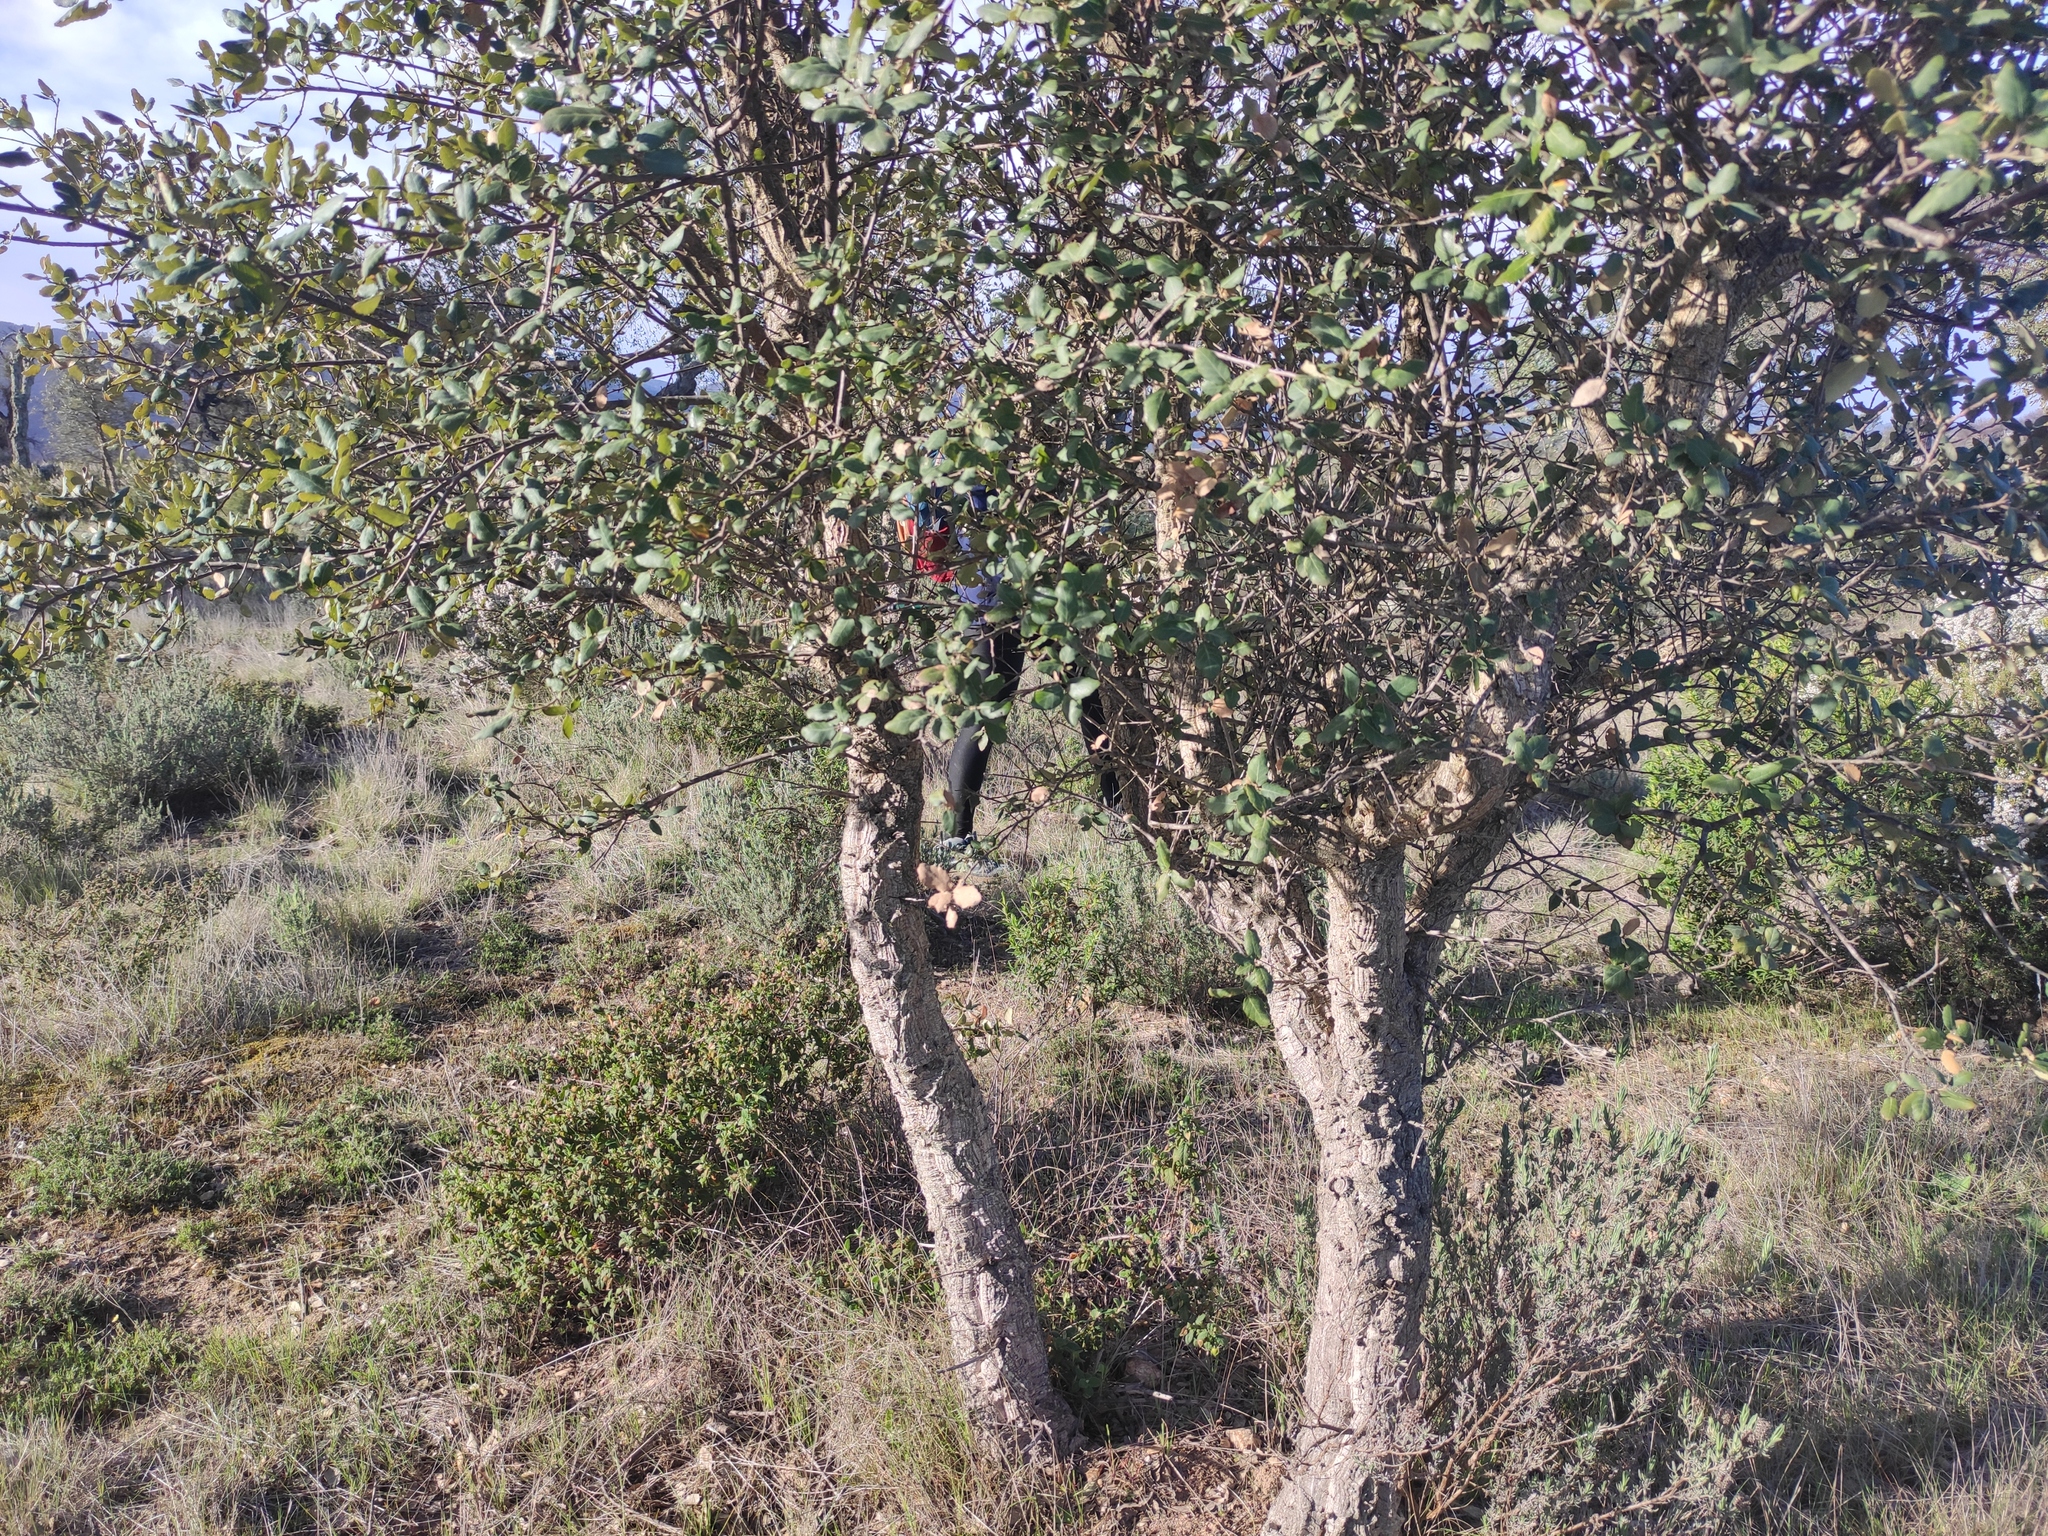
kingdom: Plantae
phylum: Tracheophyta
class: Magnoliopsida
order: Fagales
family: Fagaceae
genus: Quercus
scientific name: Quercus suber
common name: Cork oak
